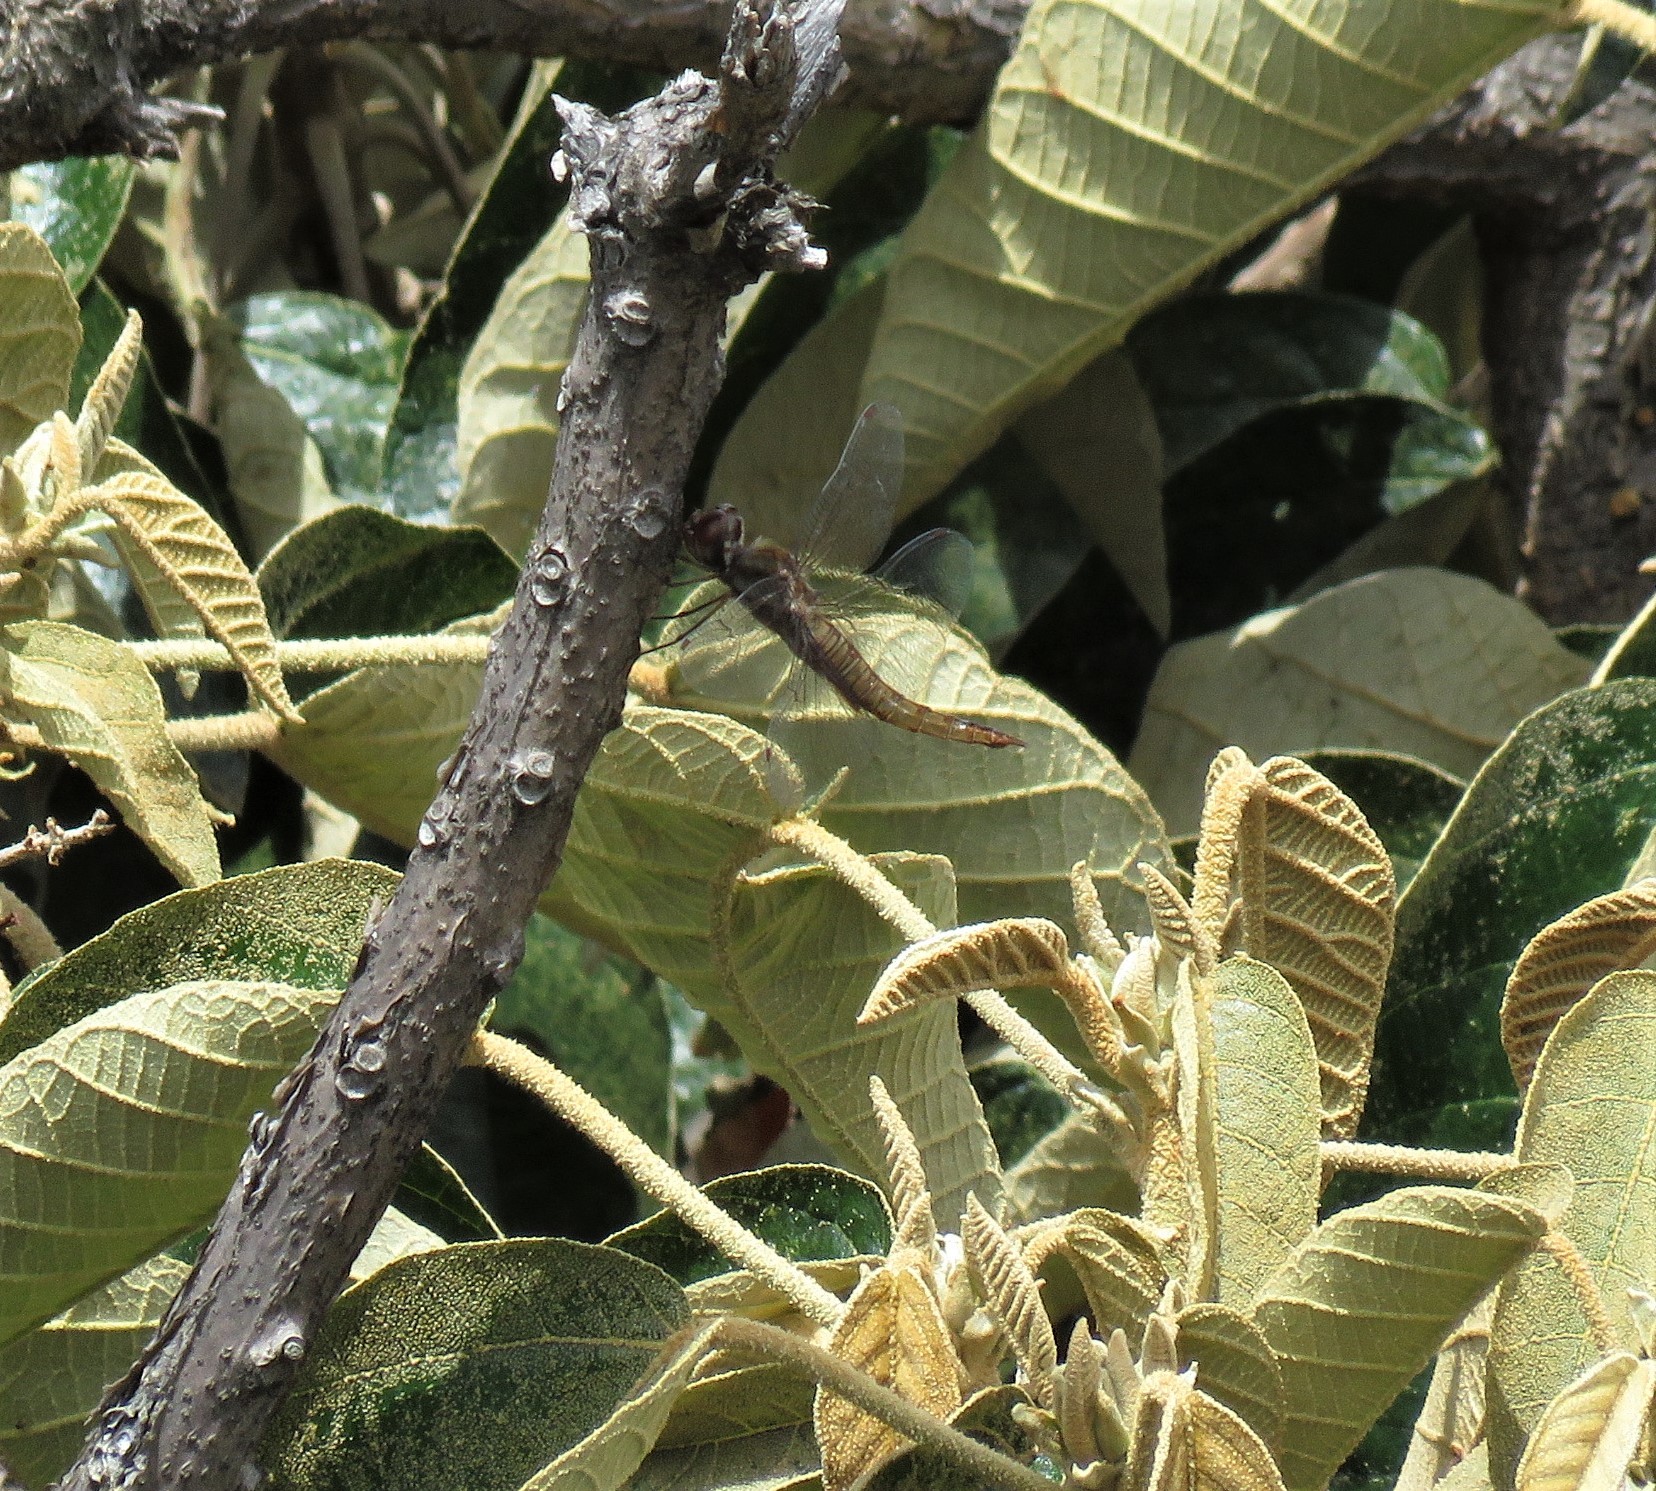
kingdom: Animalia
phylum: Arthropoda
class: Insecta
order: Odonata
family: Libellulidae
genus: Pantala
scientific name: Pantala hymenaea
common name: Spot-winged glider
